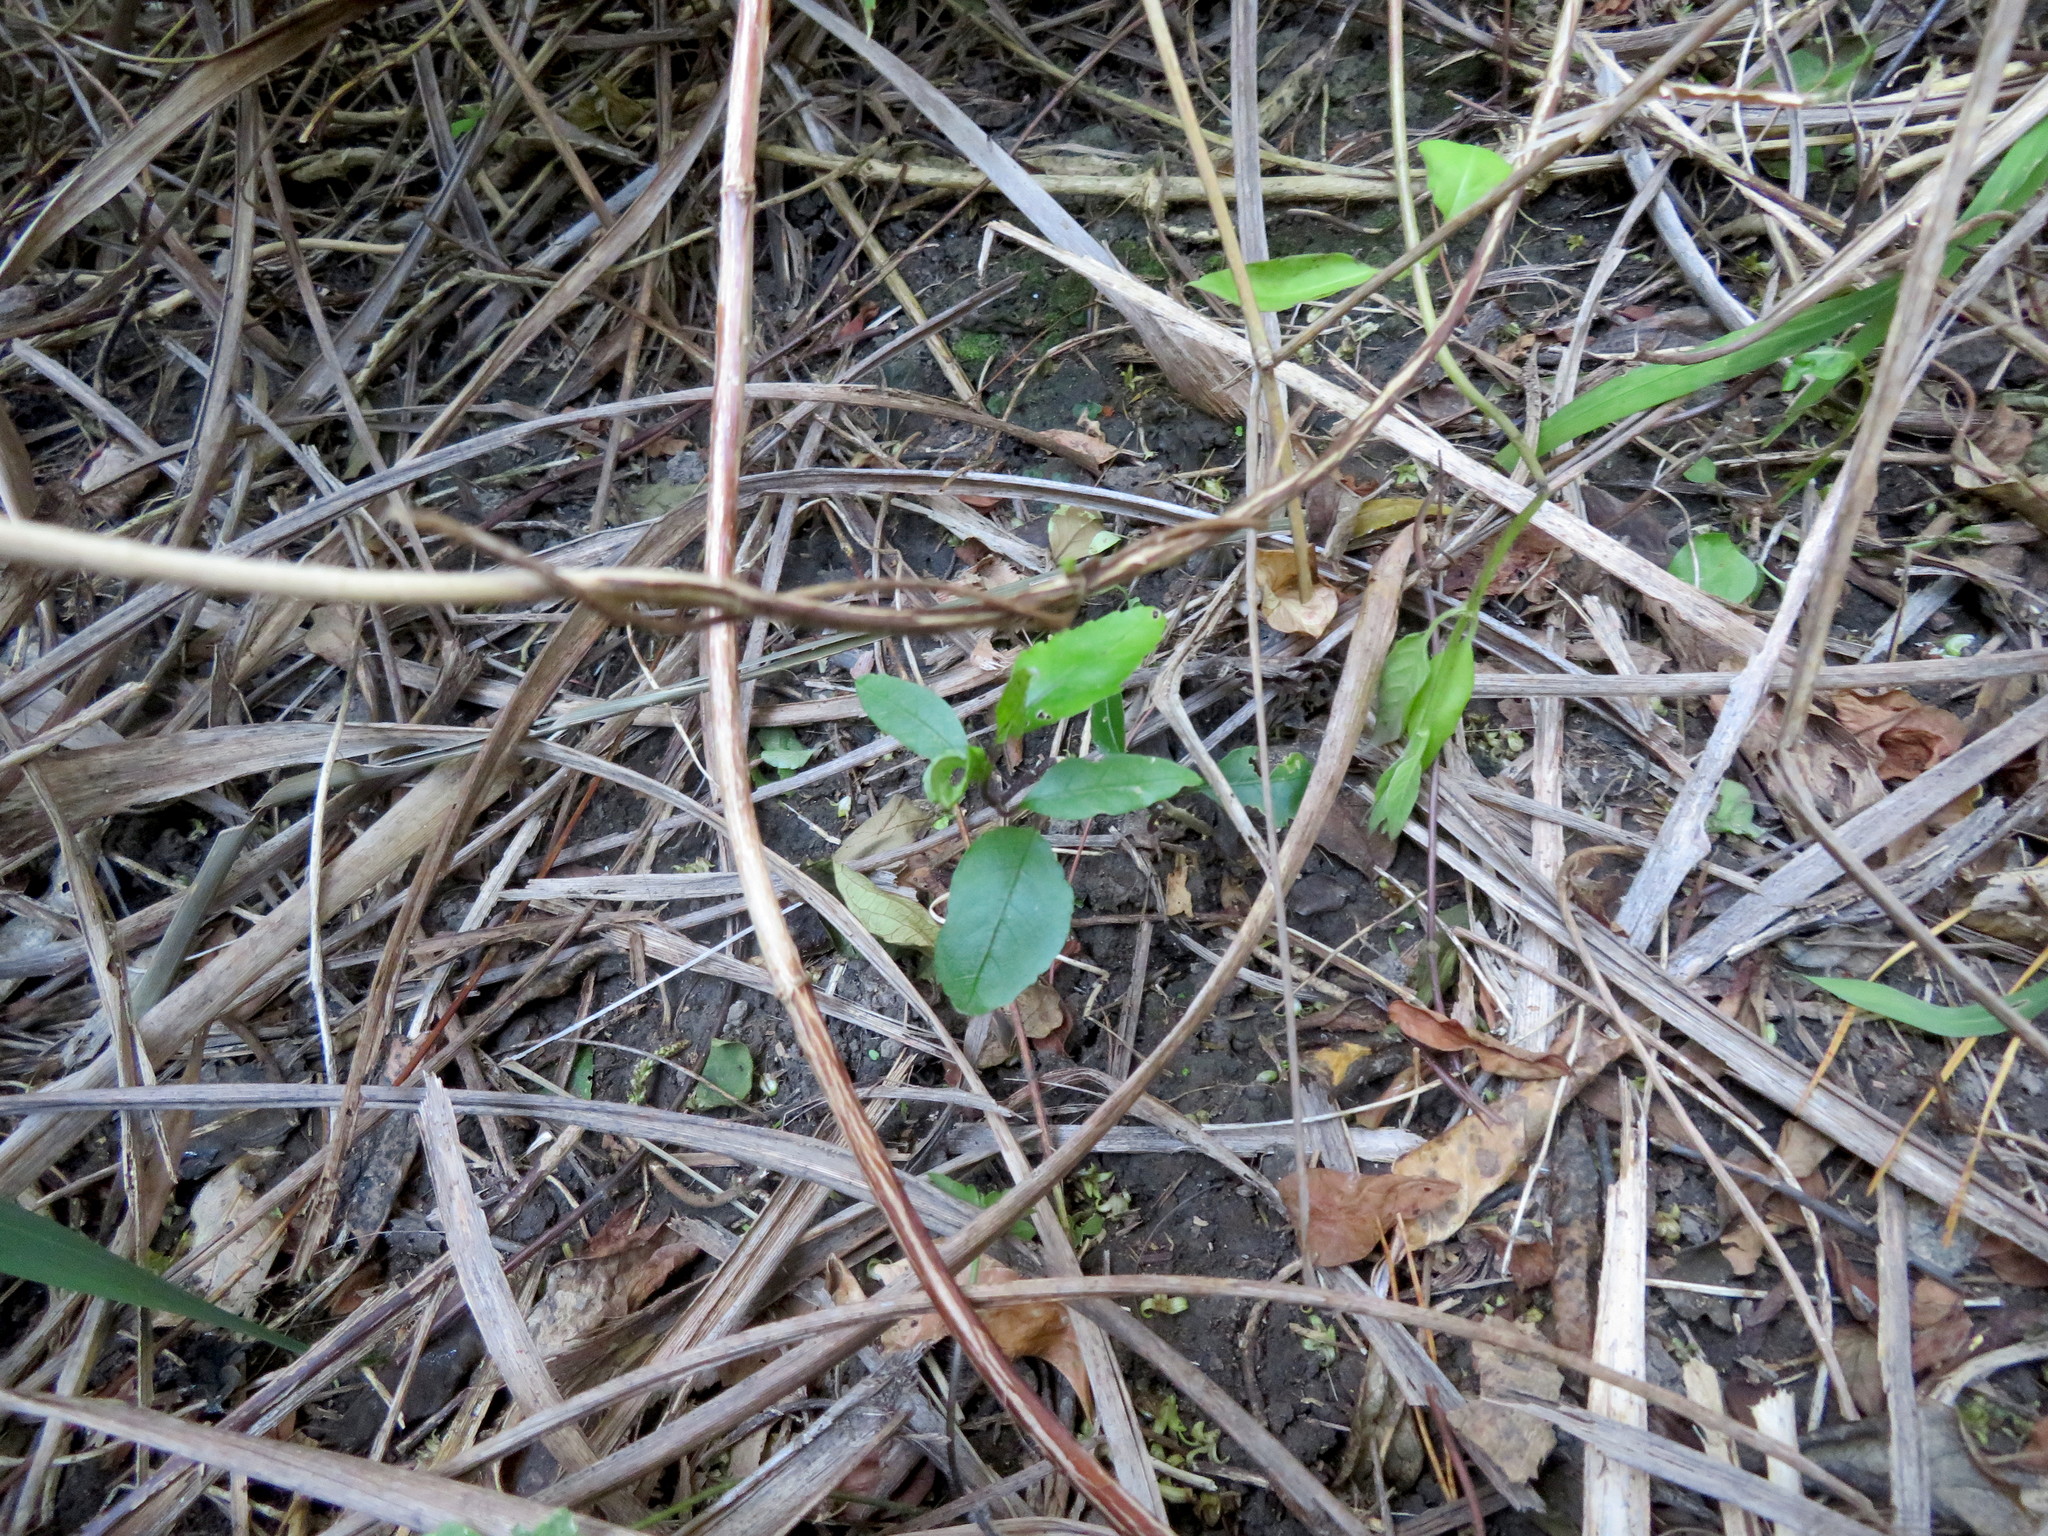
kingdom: Plantae
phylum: Tracheophyta
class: Magnoliopsida
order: Malpighiales
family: Violaceae
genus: Melicytus
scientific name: Melicytus ramiflorus
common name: Mahoe
